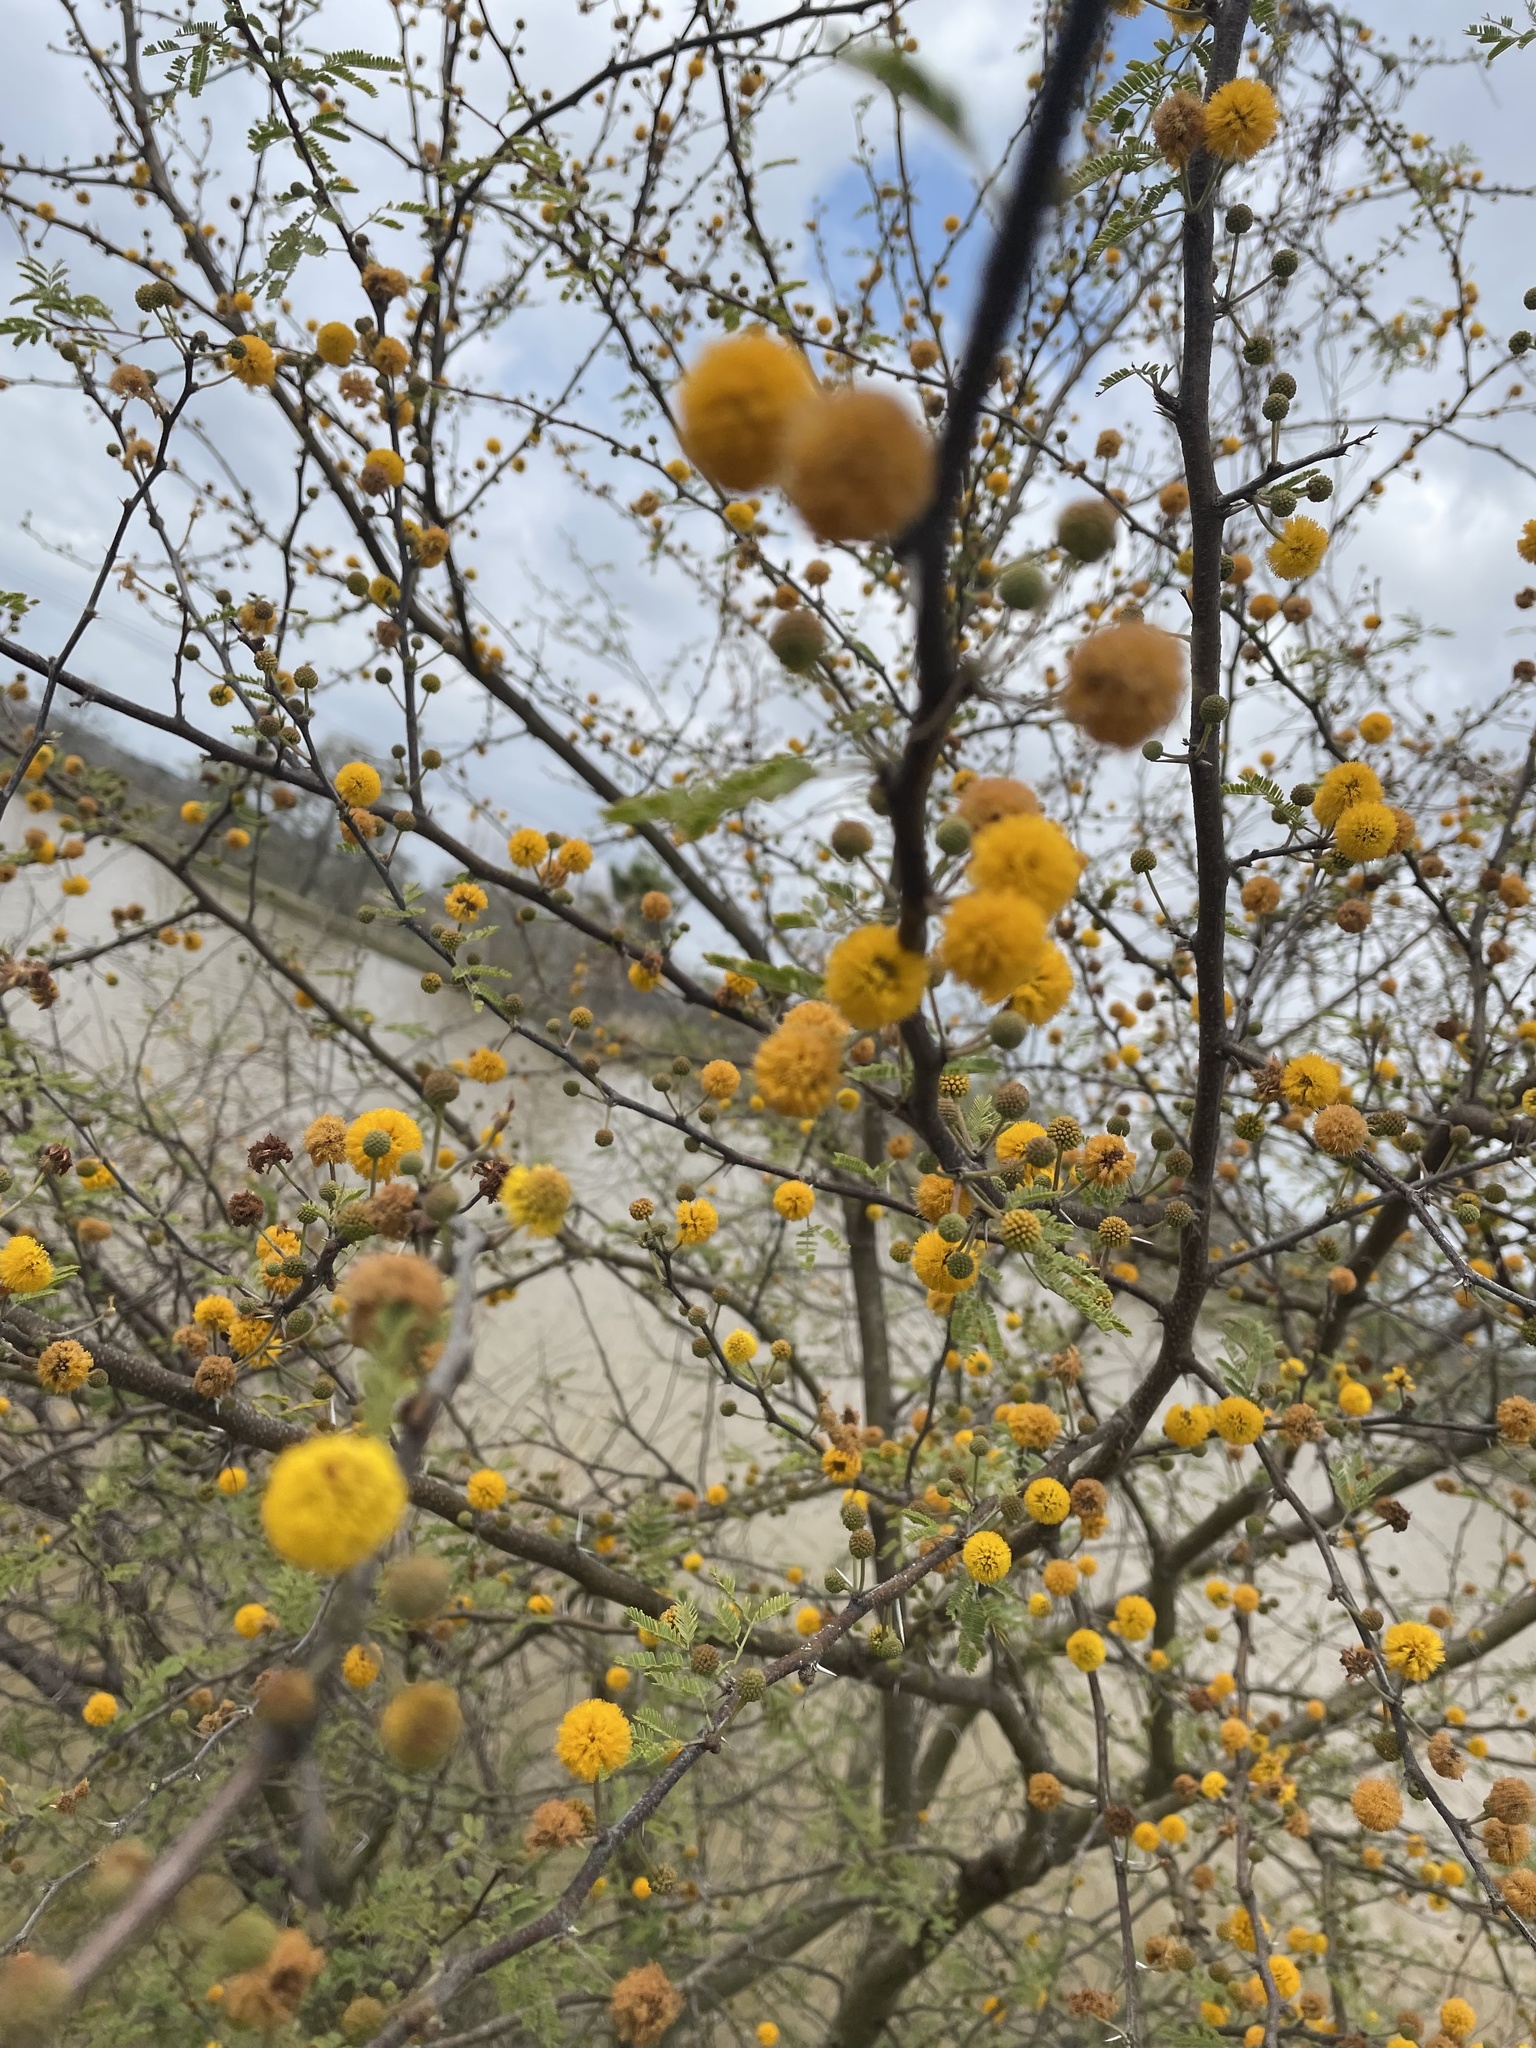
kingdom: Plantae
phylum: Tracheophyta
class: Magnoliopsida
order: Fabales
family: Fabaceae
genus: Vachellia
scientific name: Vachellia farnesiana
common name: Sweet acacia
